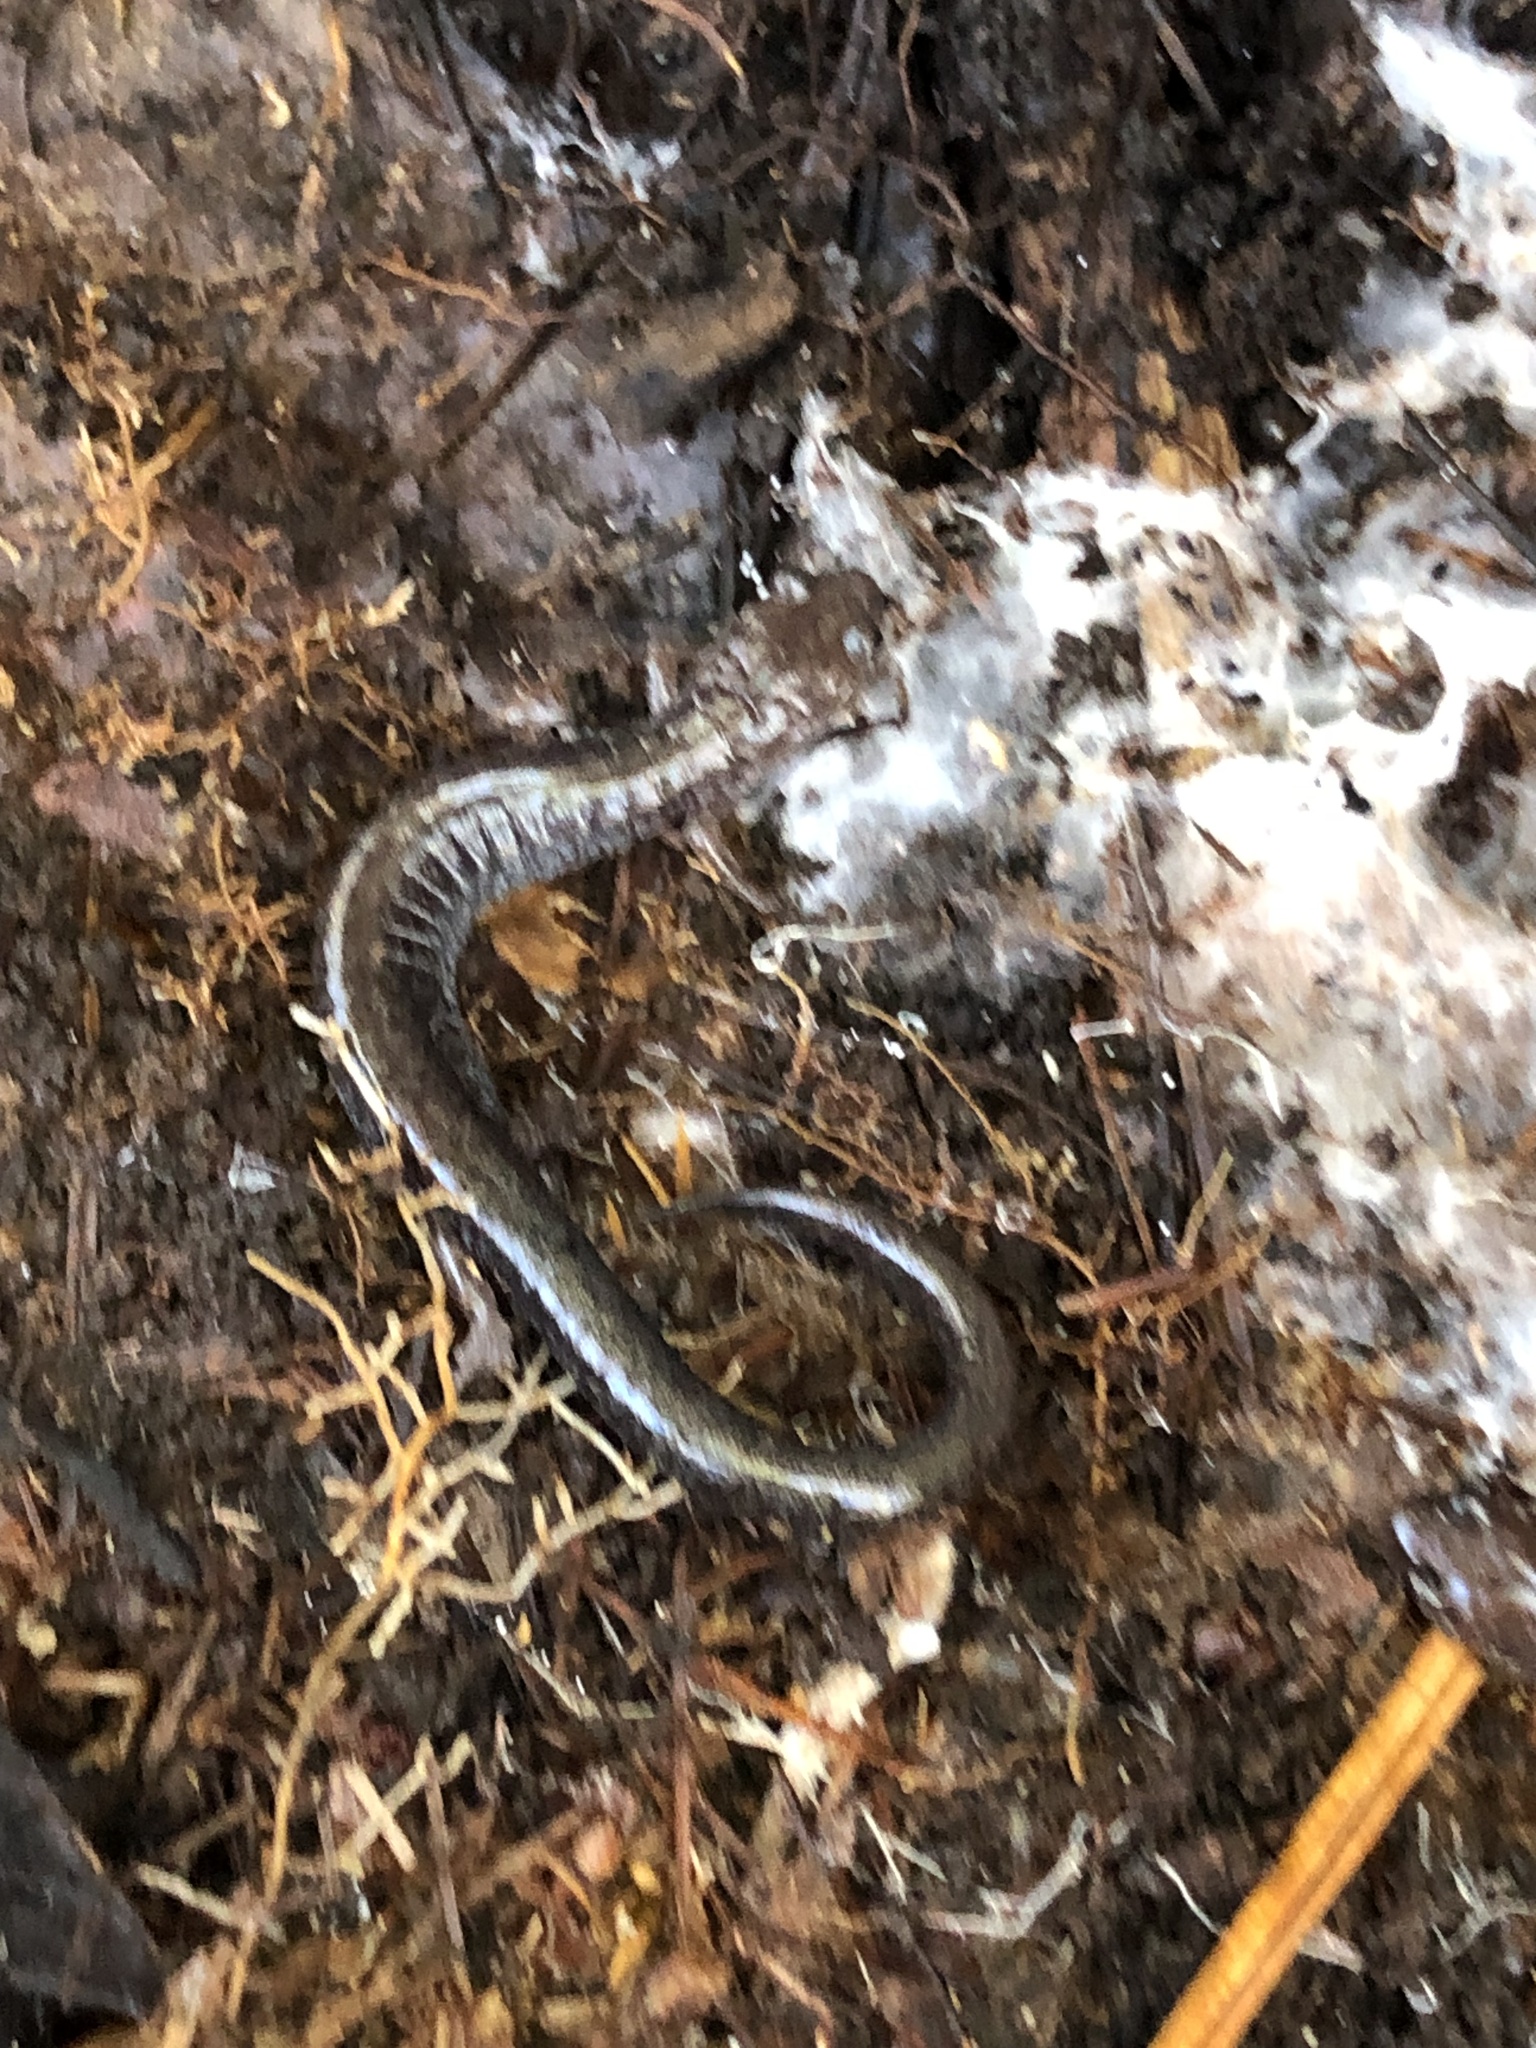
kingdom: Animalia
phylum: Chordata
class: Amphibia
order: Caudata
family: Plethodontidae
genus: Plethodon
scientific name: Plethodon cinereus
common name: Redback salamander
